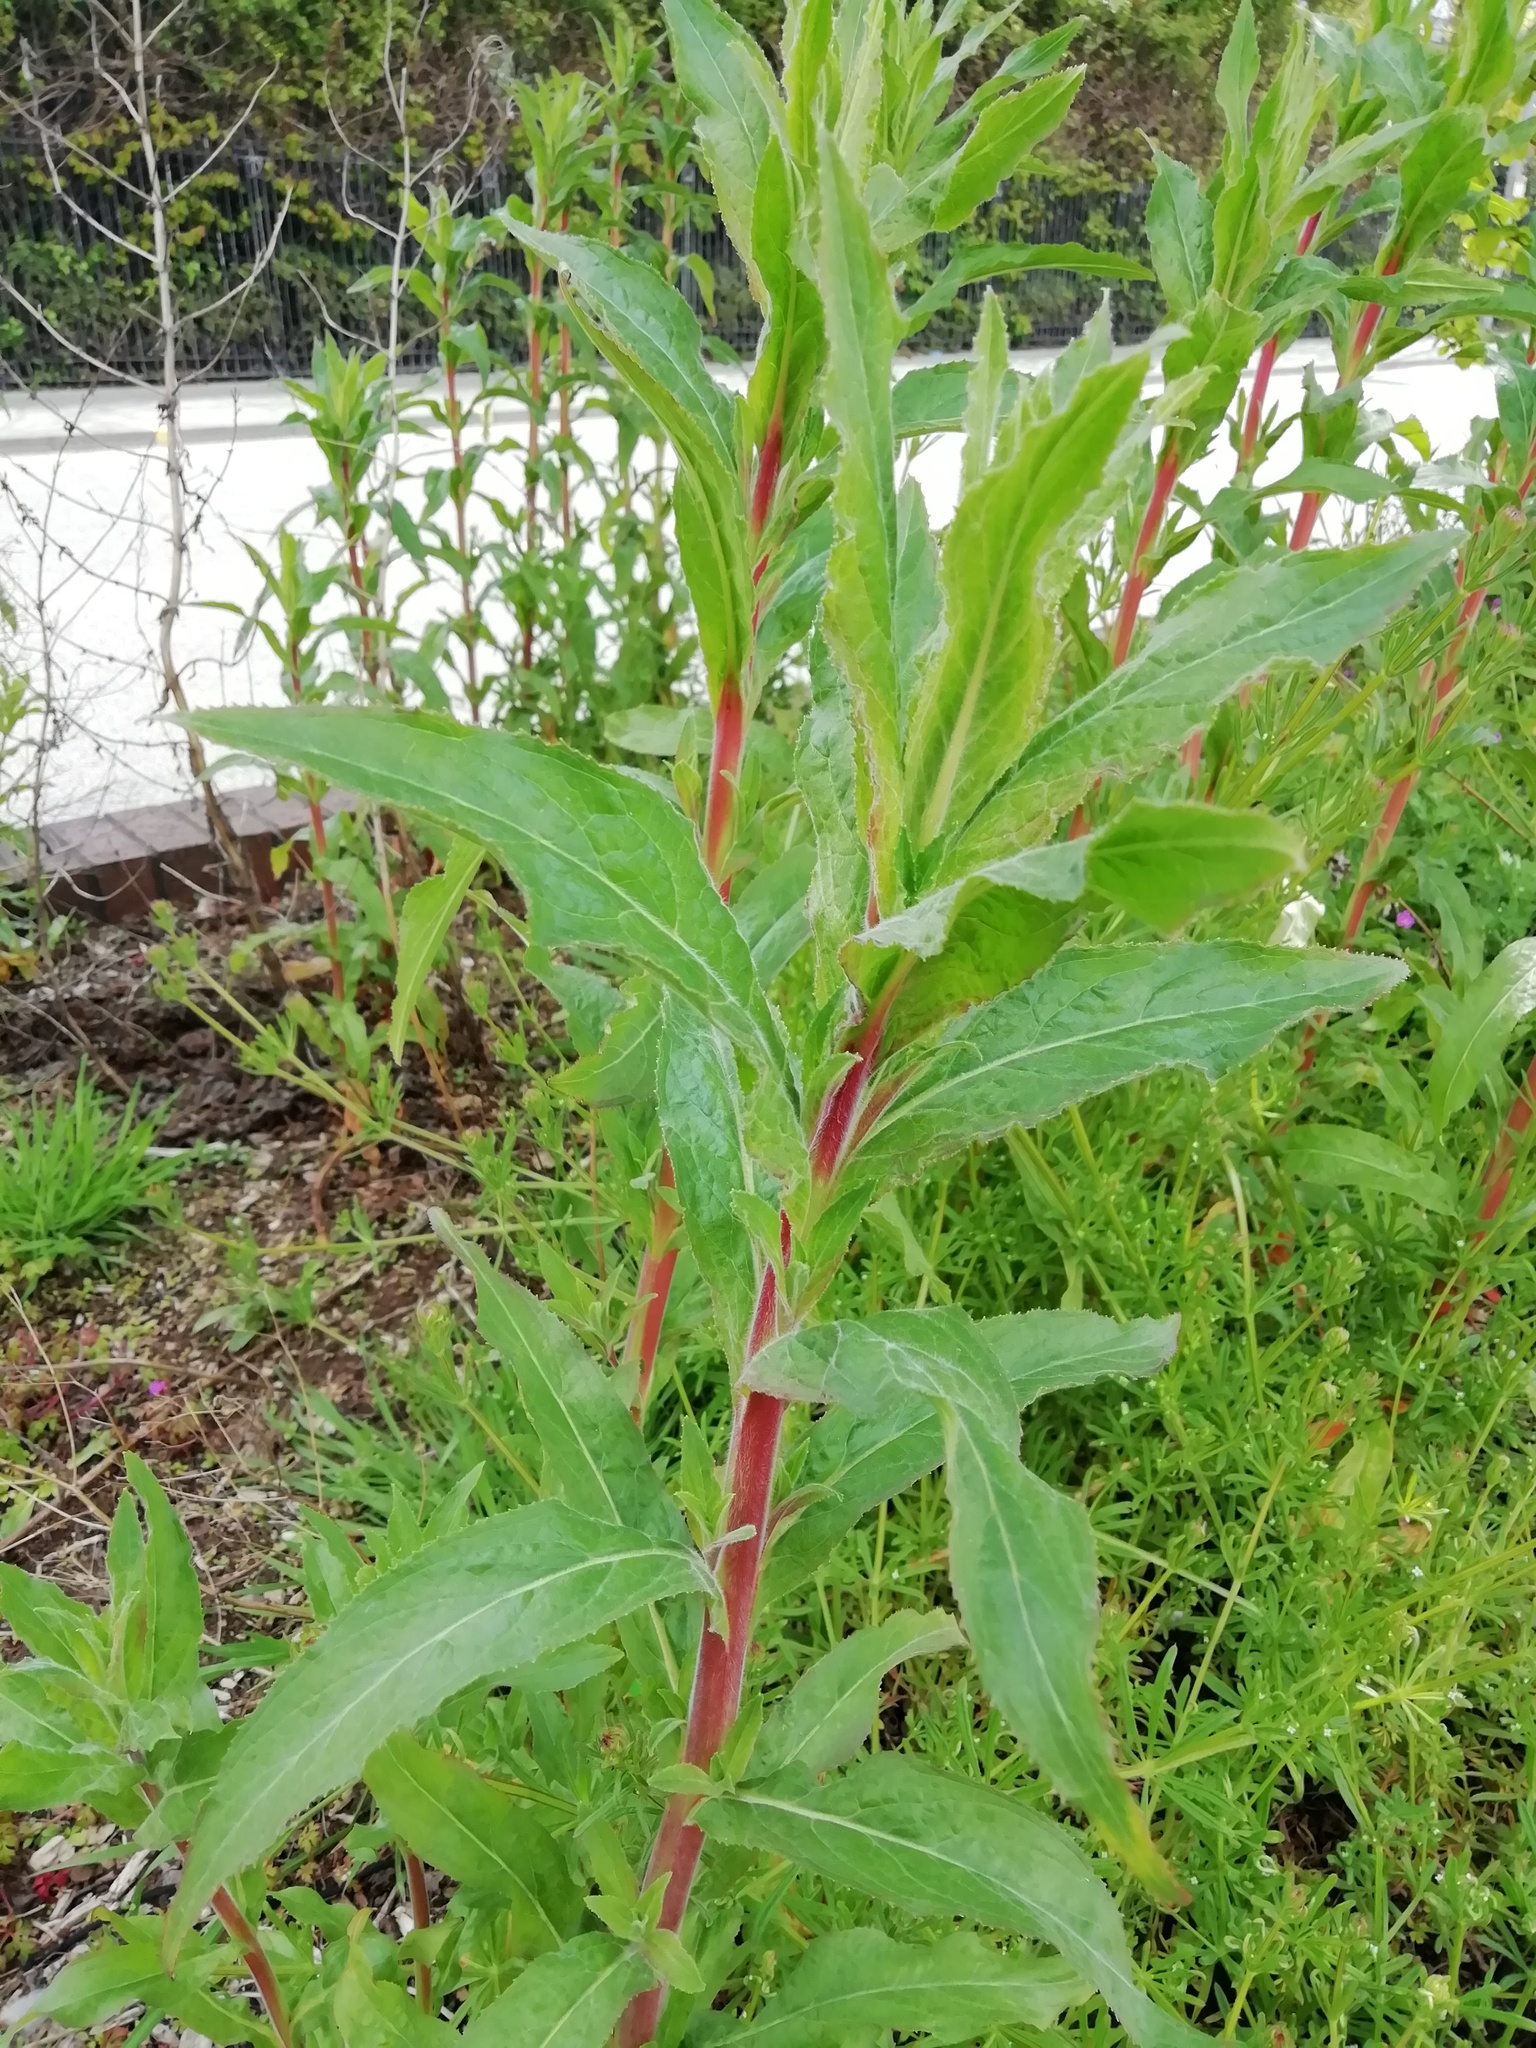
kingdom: Plantae
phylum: Tracheophyta
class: Magnoliopsida
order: Myrtales
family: Onagraceae
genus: Epilobium
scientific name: Epilobium hirsutum
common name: Great willowherb
